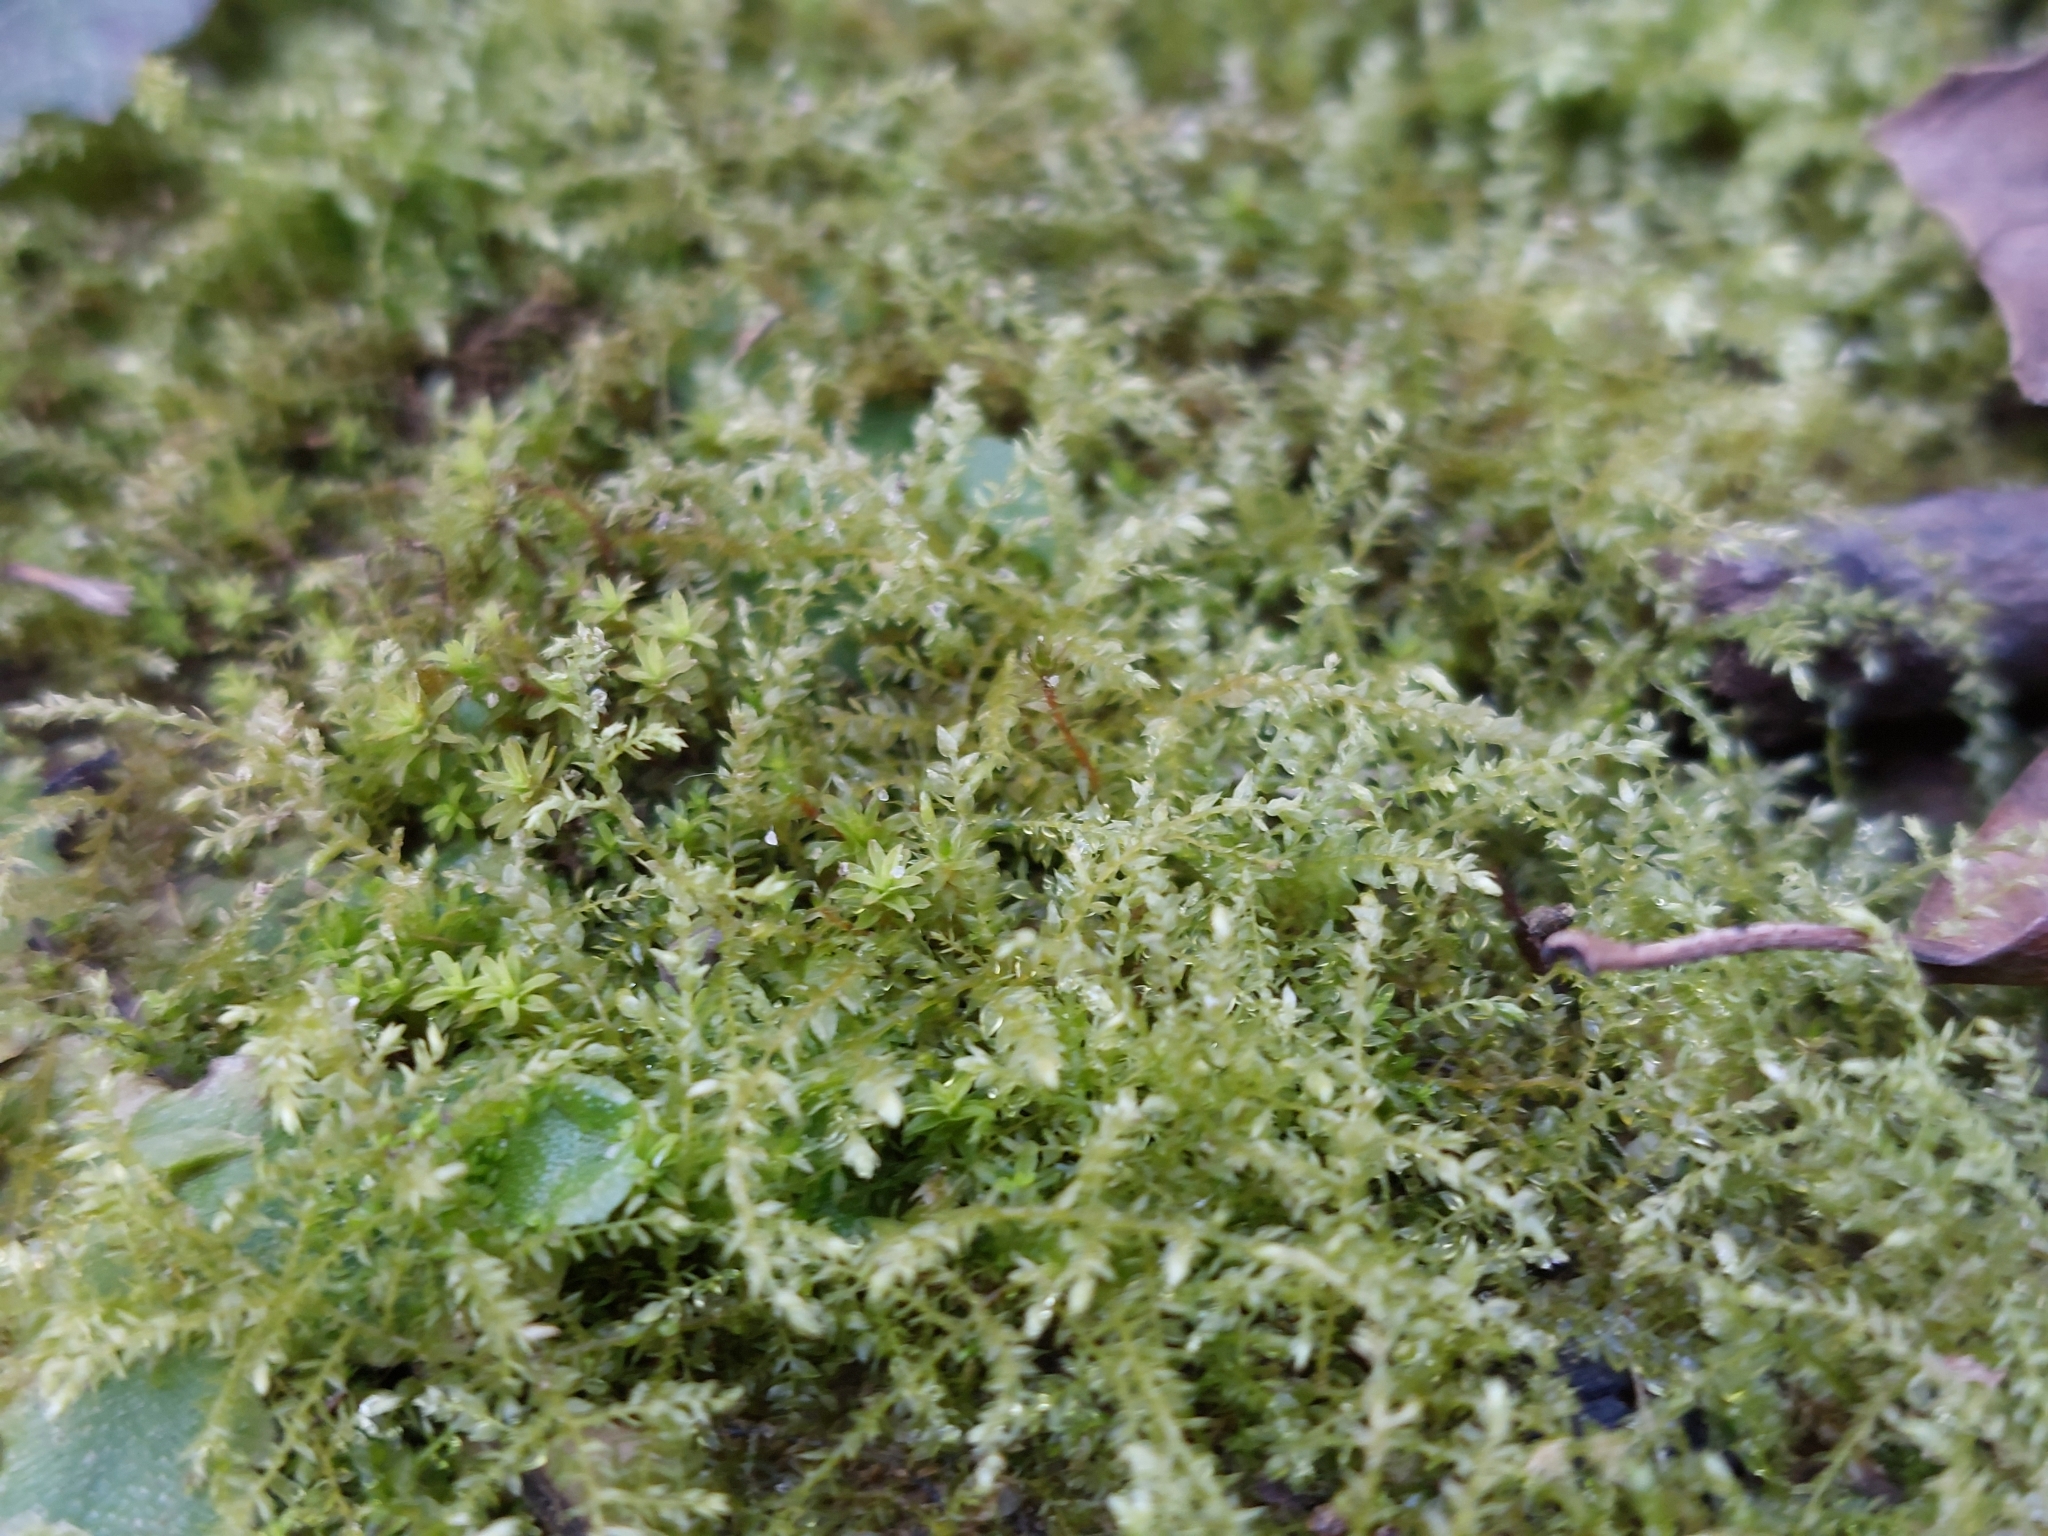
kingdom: Plantae
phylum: Bryophyta
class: Bryopsida
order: Hypnales
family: Brachytheciaceae
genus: Oxyrrhynchium
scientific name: Oxyrrhynchium hians
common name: Spreading beaked moss
